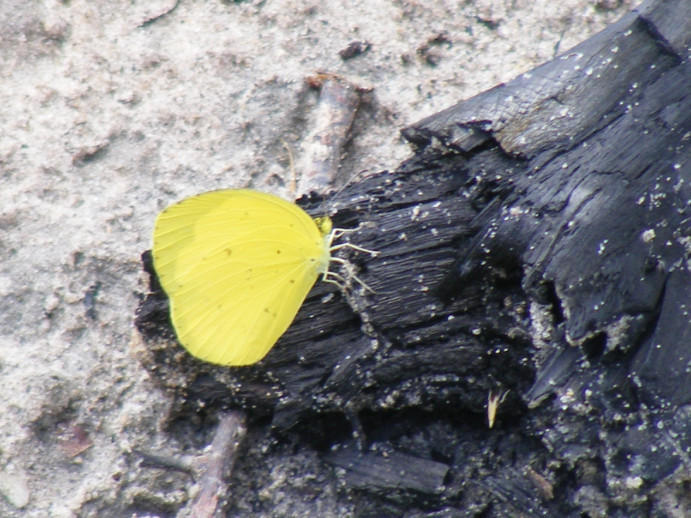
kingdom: Animalia
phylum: Arthropoda
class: Insecta
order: Lepidoptera
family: Pieridae
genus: Eurema
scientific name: Eurema hecabe
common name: Pale grass yellow
